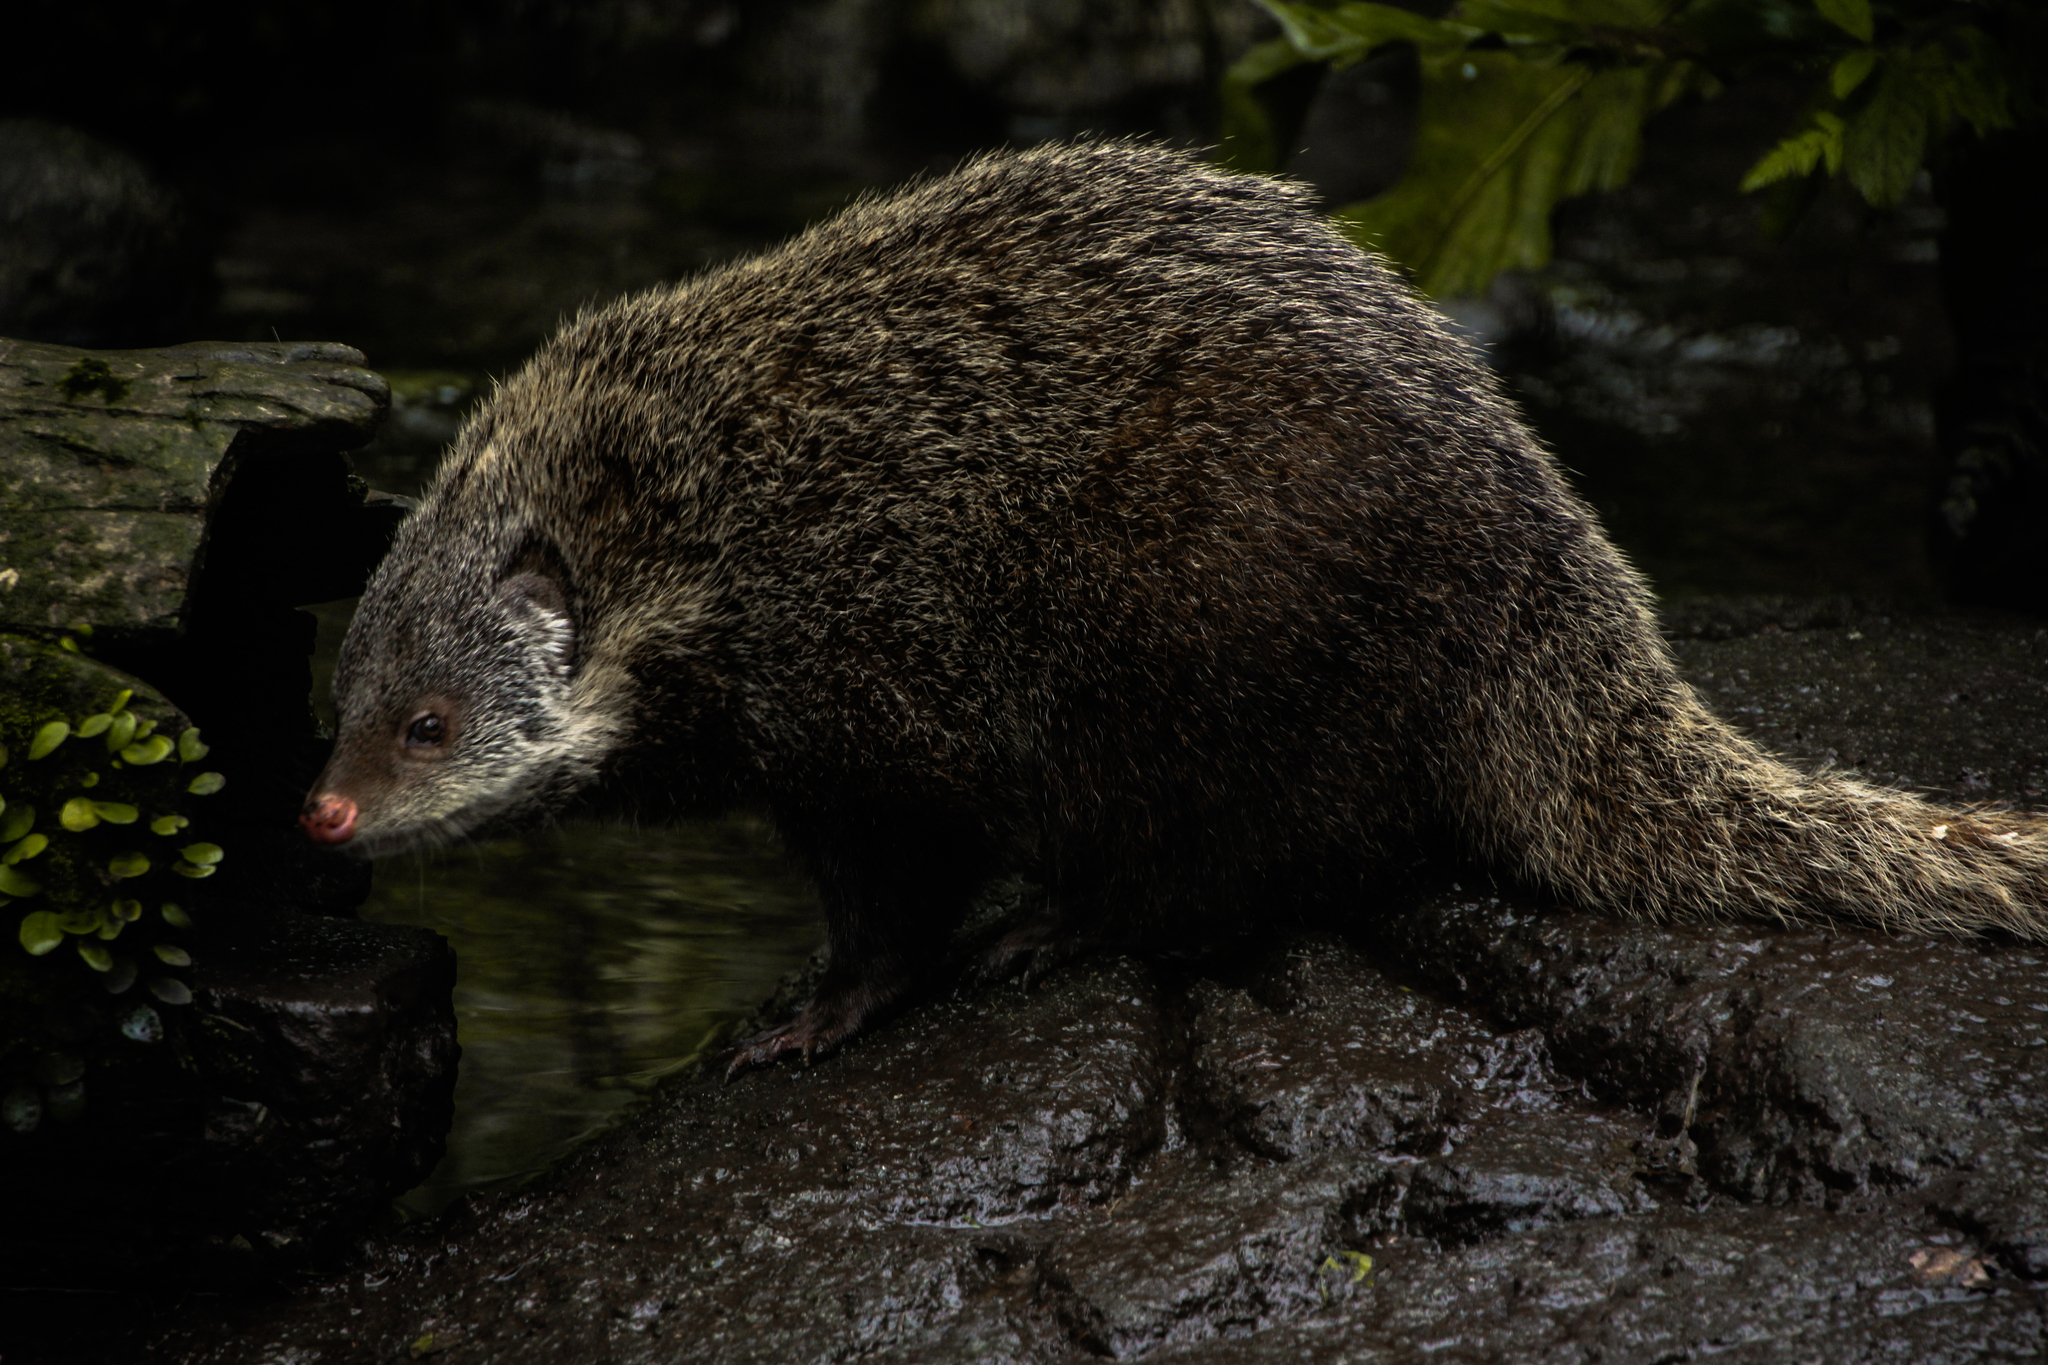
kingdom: Animalia
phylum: Chordata
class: Mammalia
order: Carnivora
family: Herpestidae
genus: Herpestes
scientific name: Herpestes urva
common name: Crab-eating mongoose
